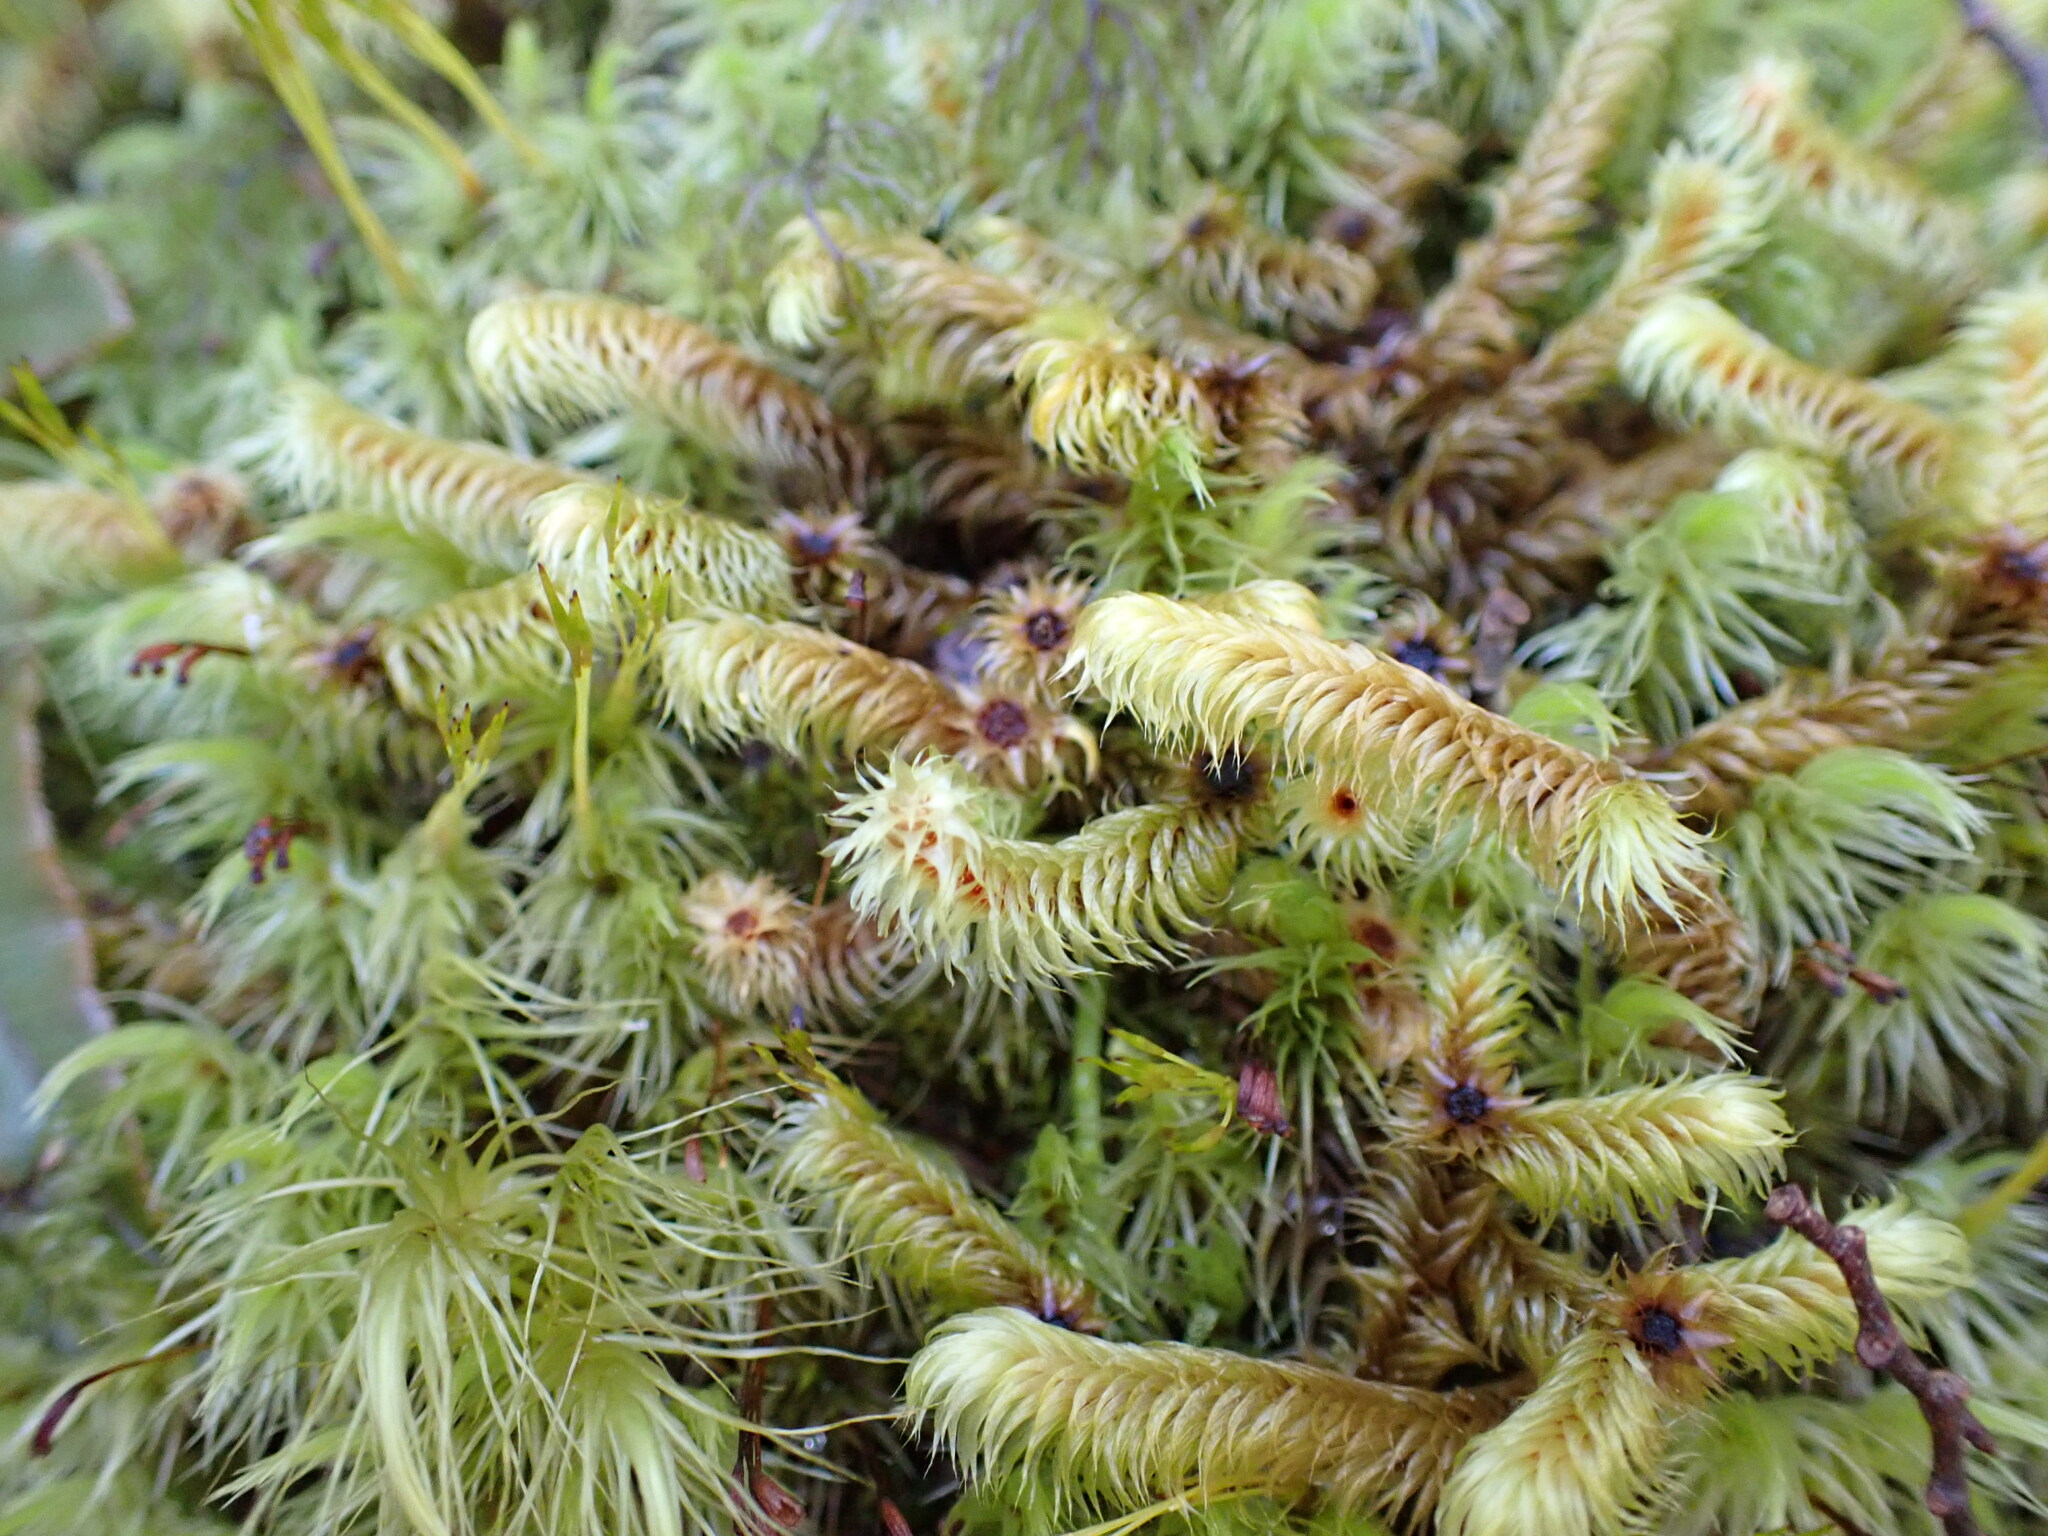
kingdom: Plantae
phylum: Bryophyta
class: Bryopsida
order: Bartramiales
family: Bartramiaceae
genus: Breutelia
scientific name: Breutelia elongata
